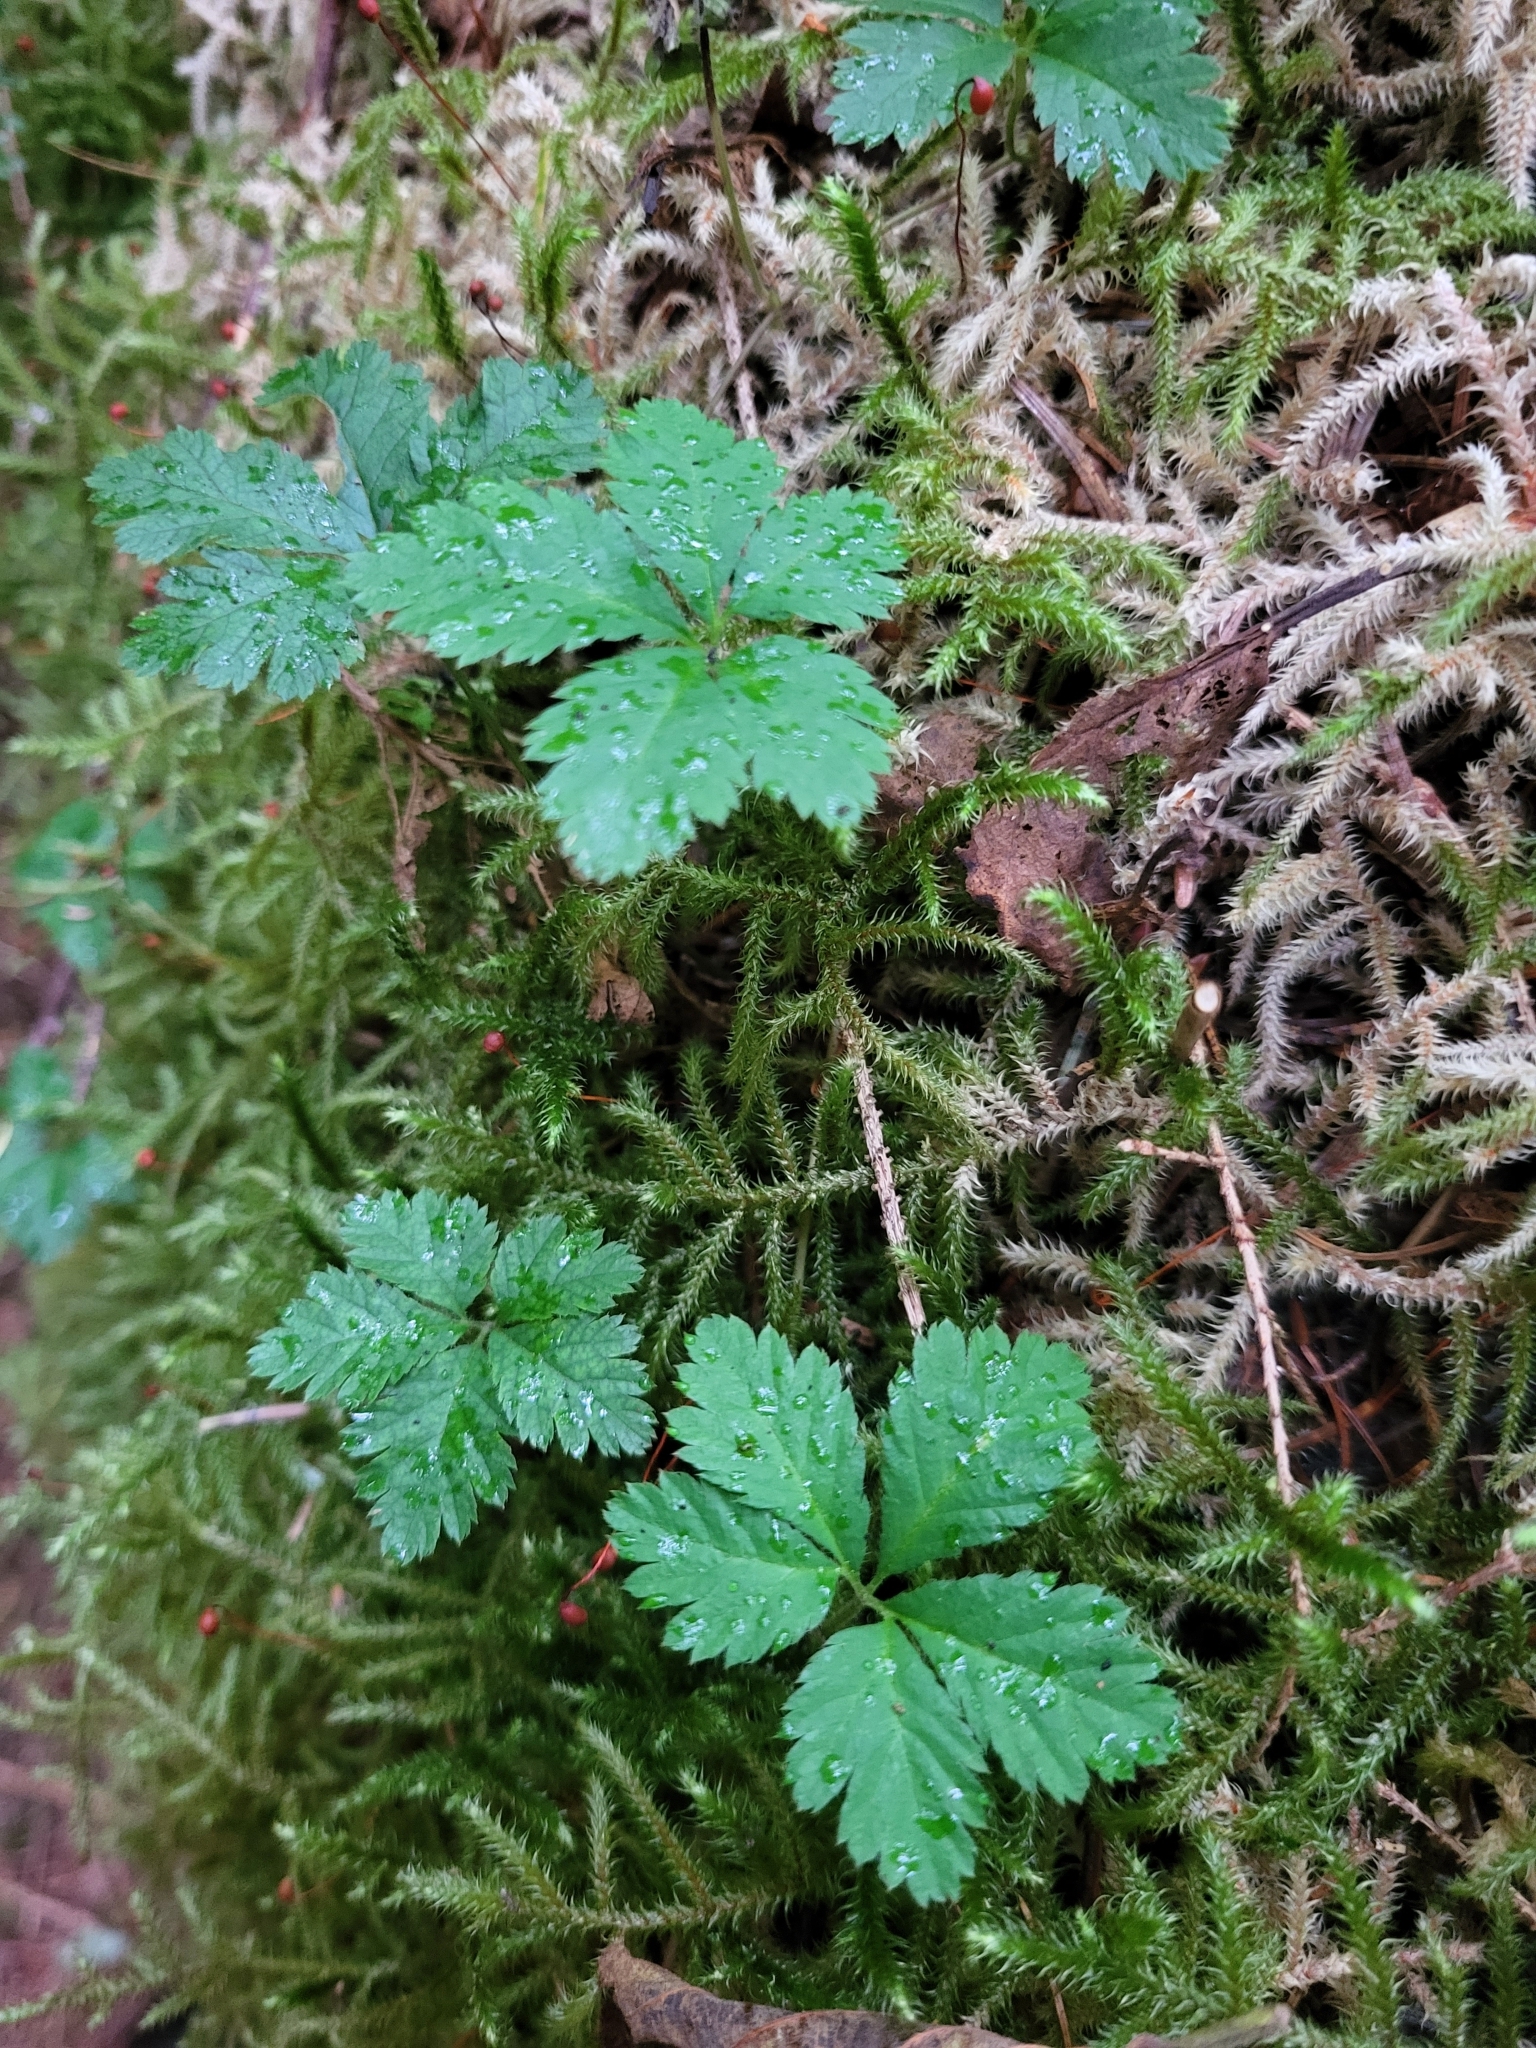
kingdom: Plantae
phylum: Tracheophyta
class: Magnoliopsida
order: Rosales
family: Rosaceae
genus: Rubus
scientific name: Rubus pedatus
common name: Creeping raspberry
